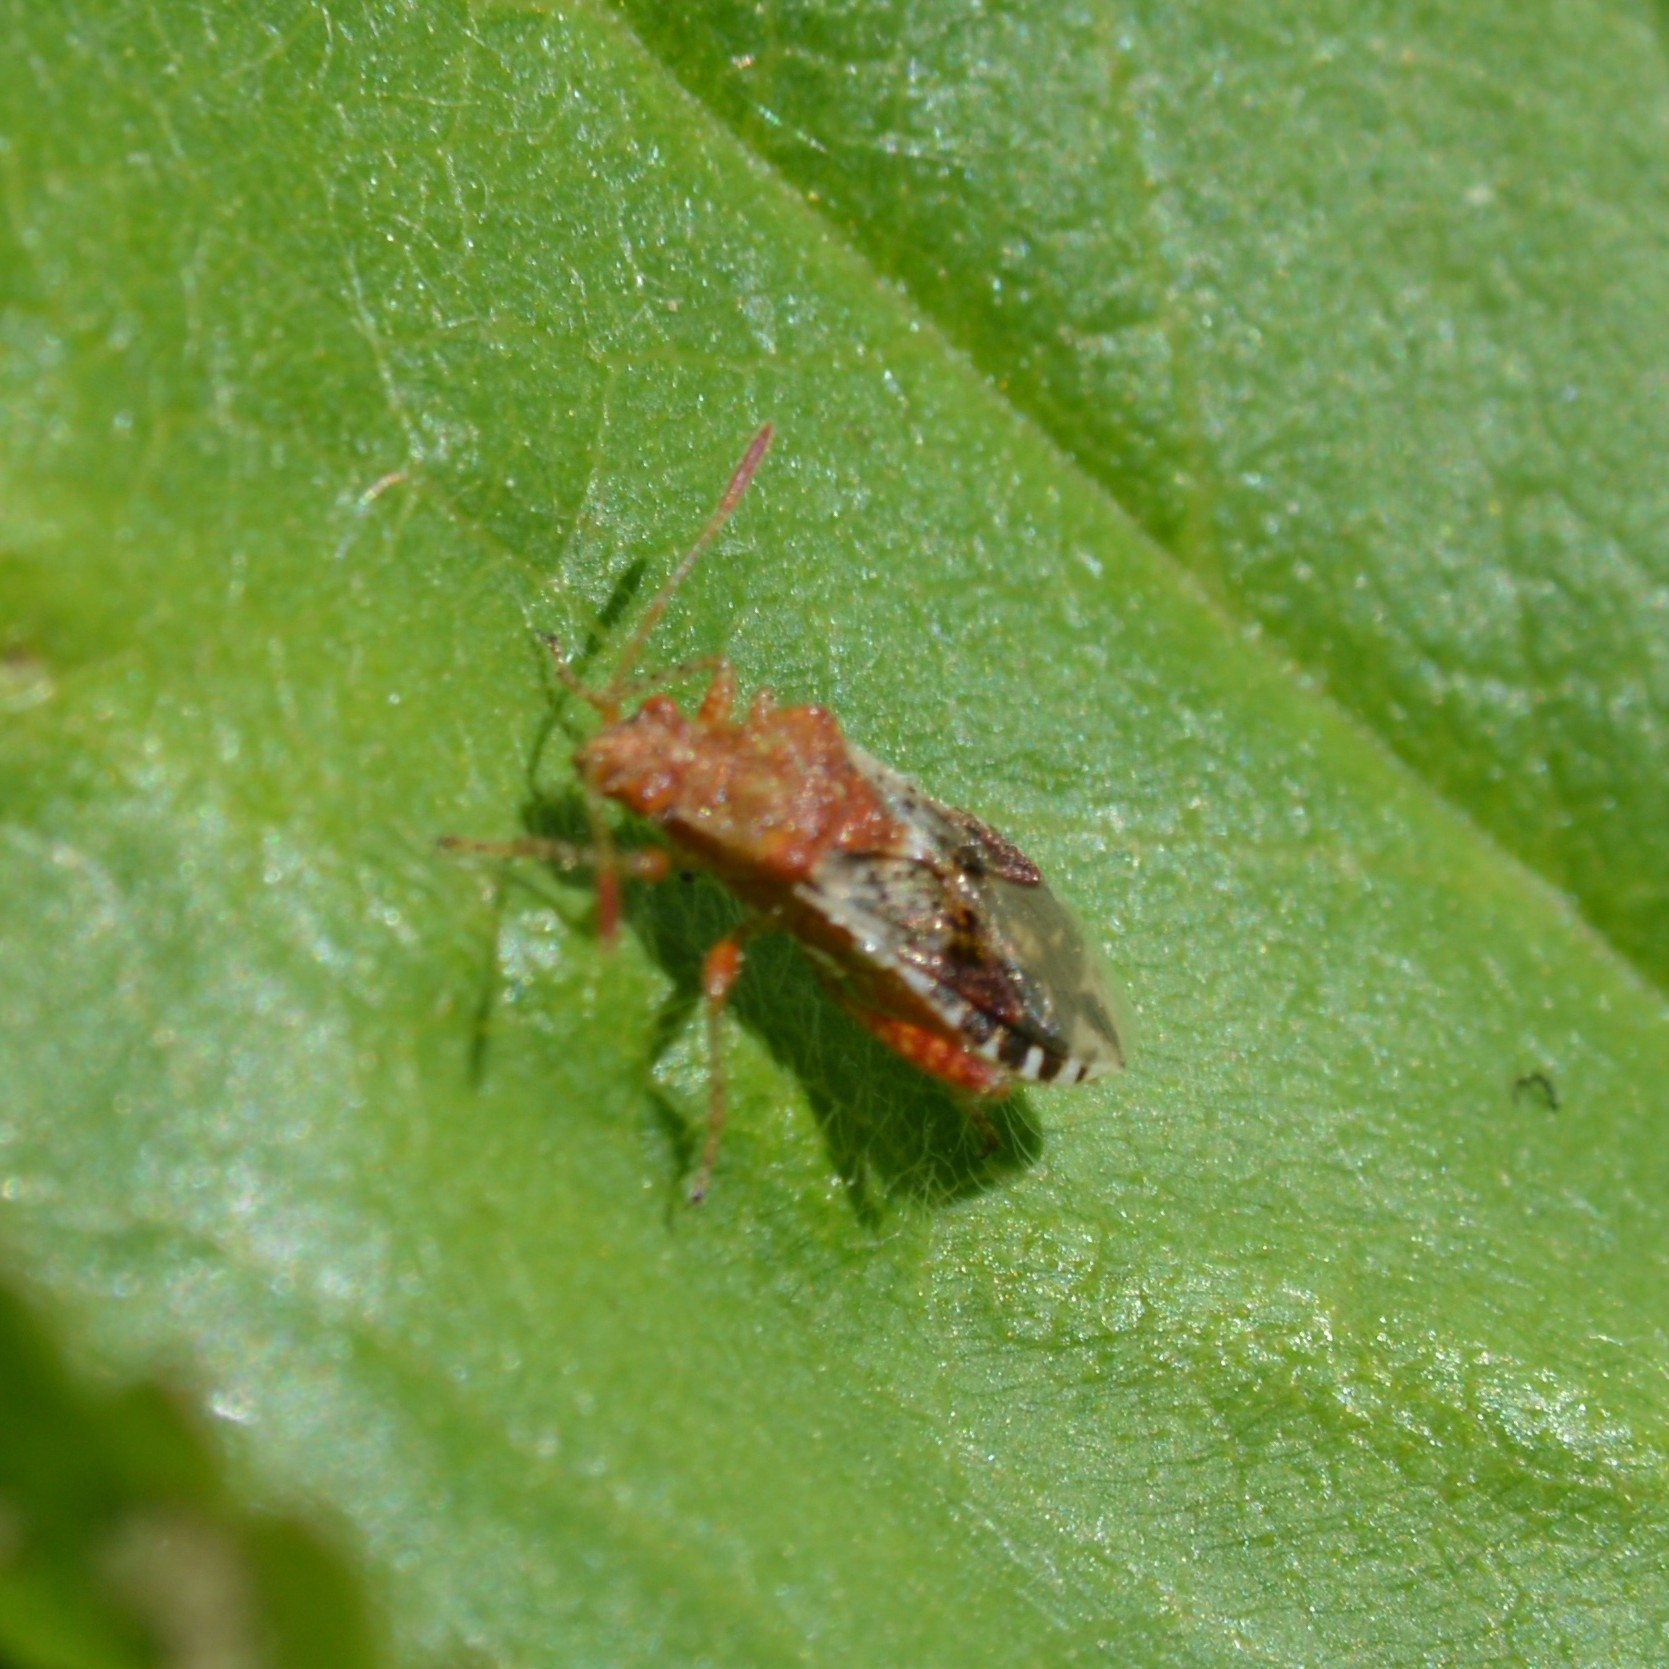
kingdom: Animalia
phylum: Arthropoda
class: Insecta
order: Hemiptera
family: Rhopalidae
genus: Rhopalus
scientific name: Rhopalus subrufus
